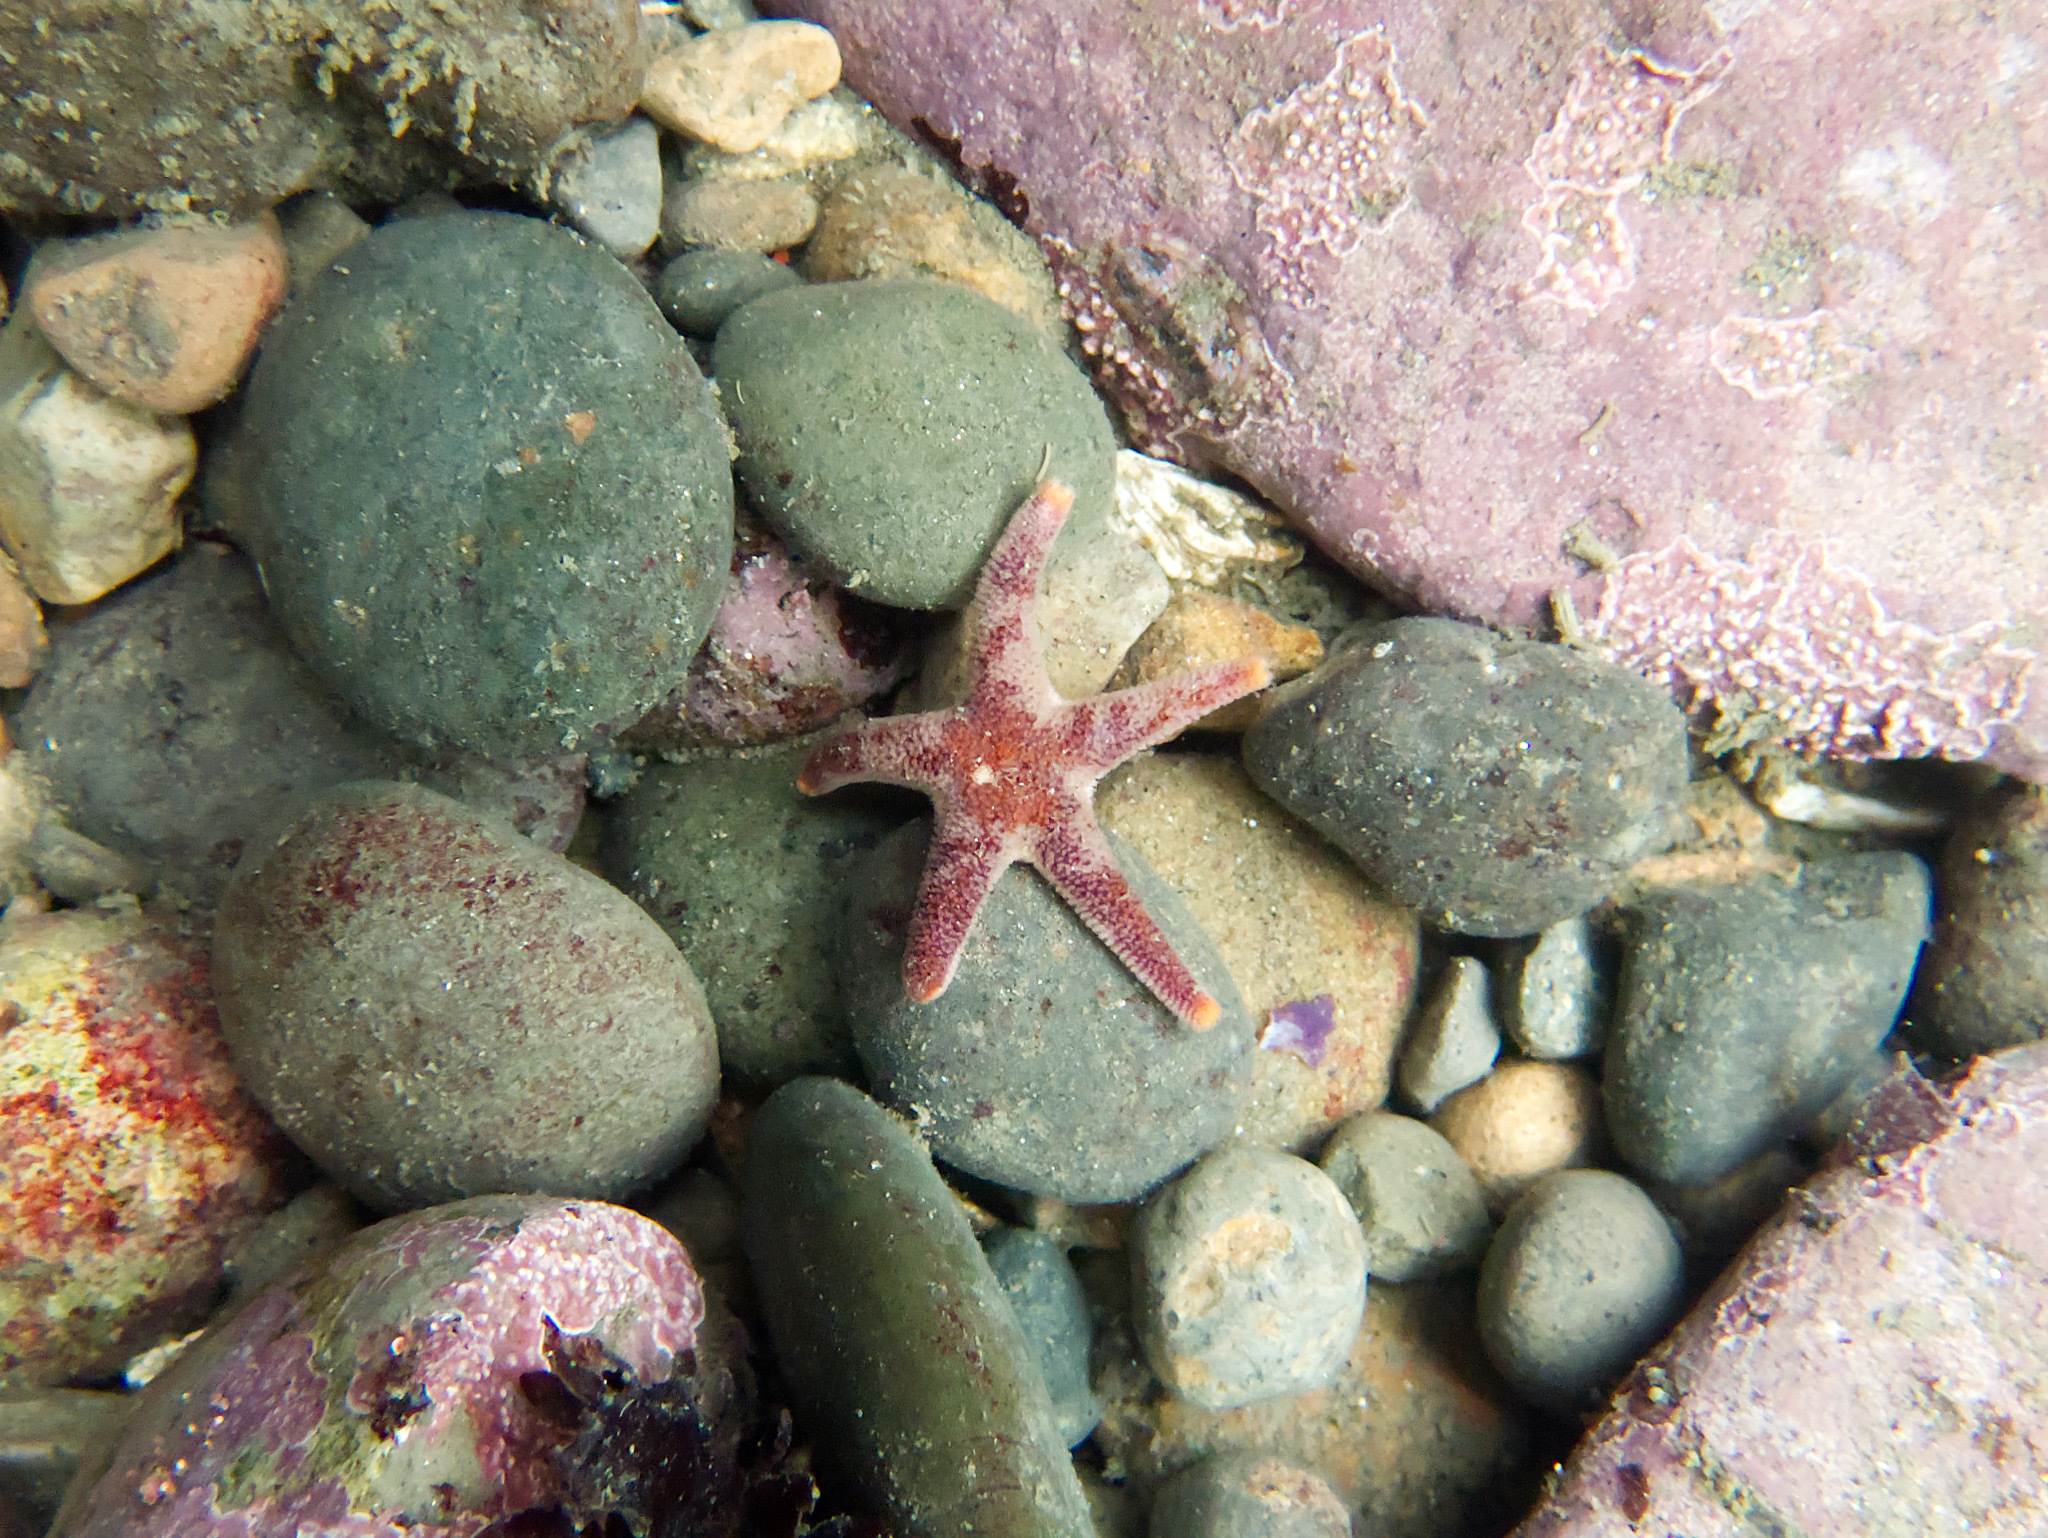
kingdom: Animalia
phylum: Echinodermata
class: Asteroidea
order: Spinulosida
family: Echinasteridae
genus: Henricia
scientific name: Henricia pumila
